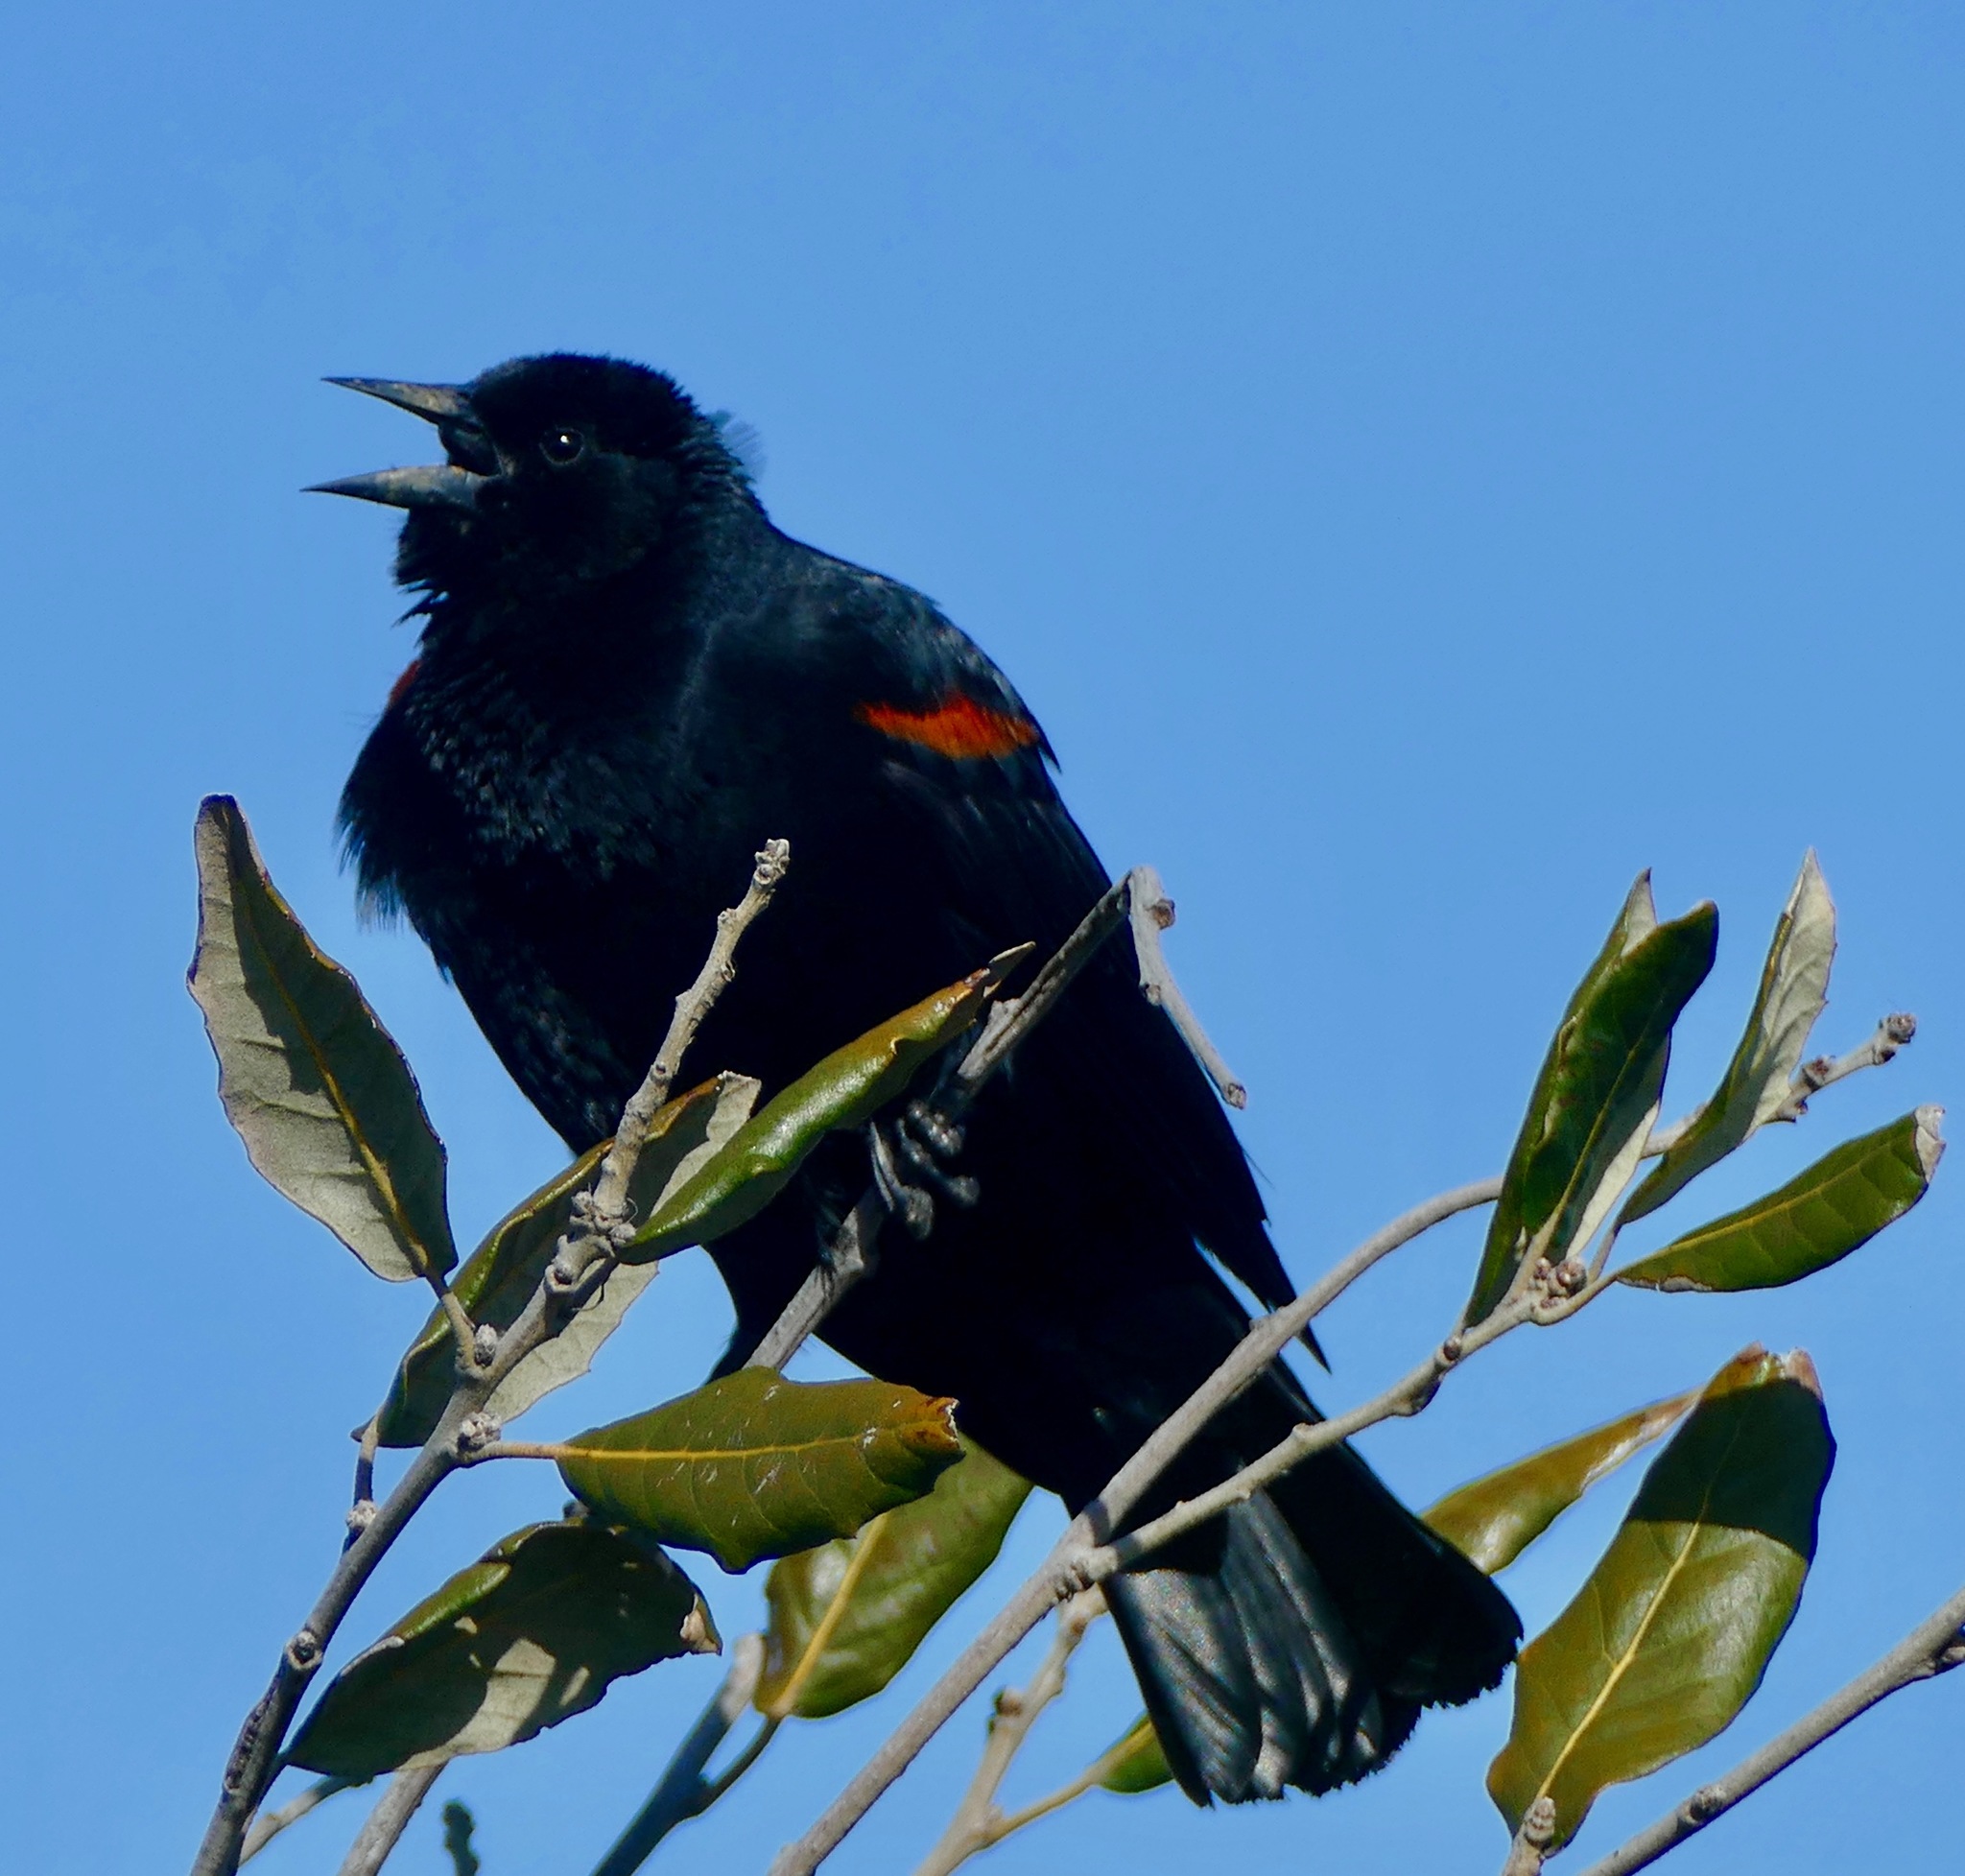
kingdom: Animalia
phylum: Chordata
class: Aves
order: Passeriformes
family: Icteridae
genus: Agelaius
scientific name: Agelaius phoeniceus
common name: Red-winged blackbird
